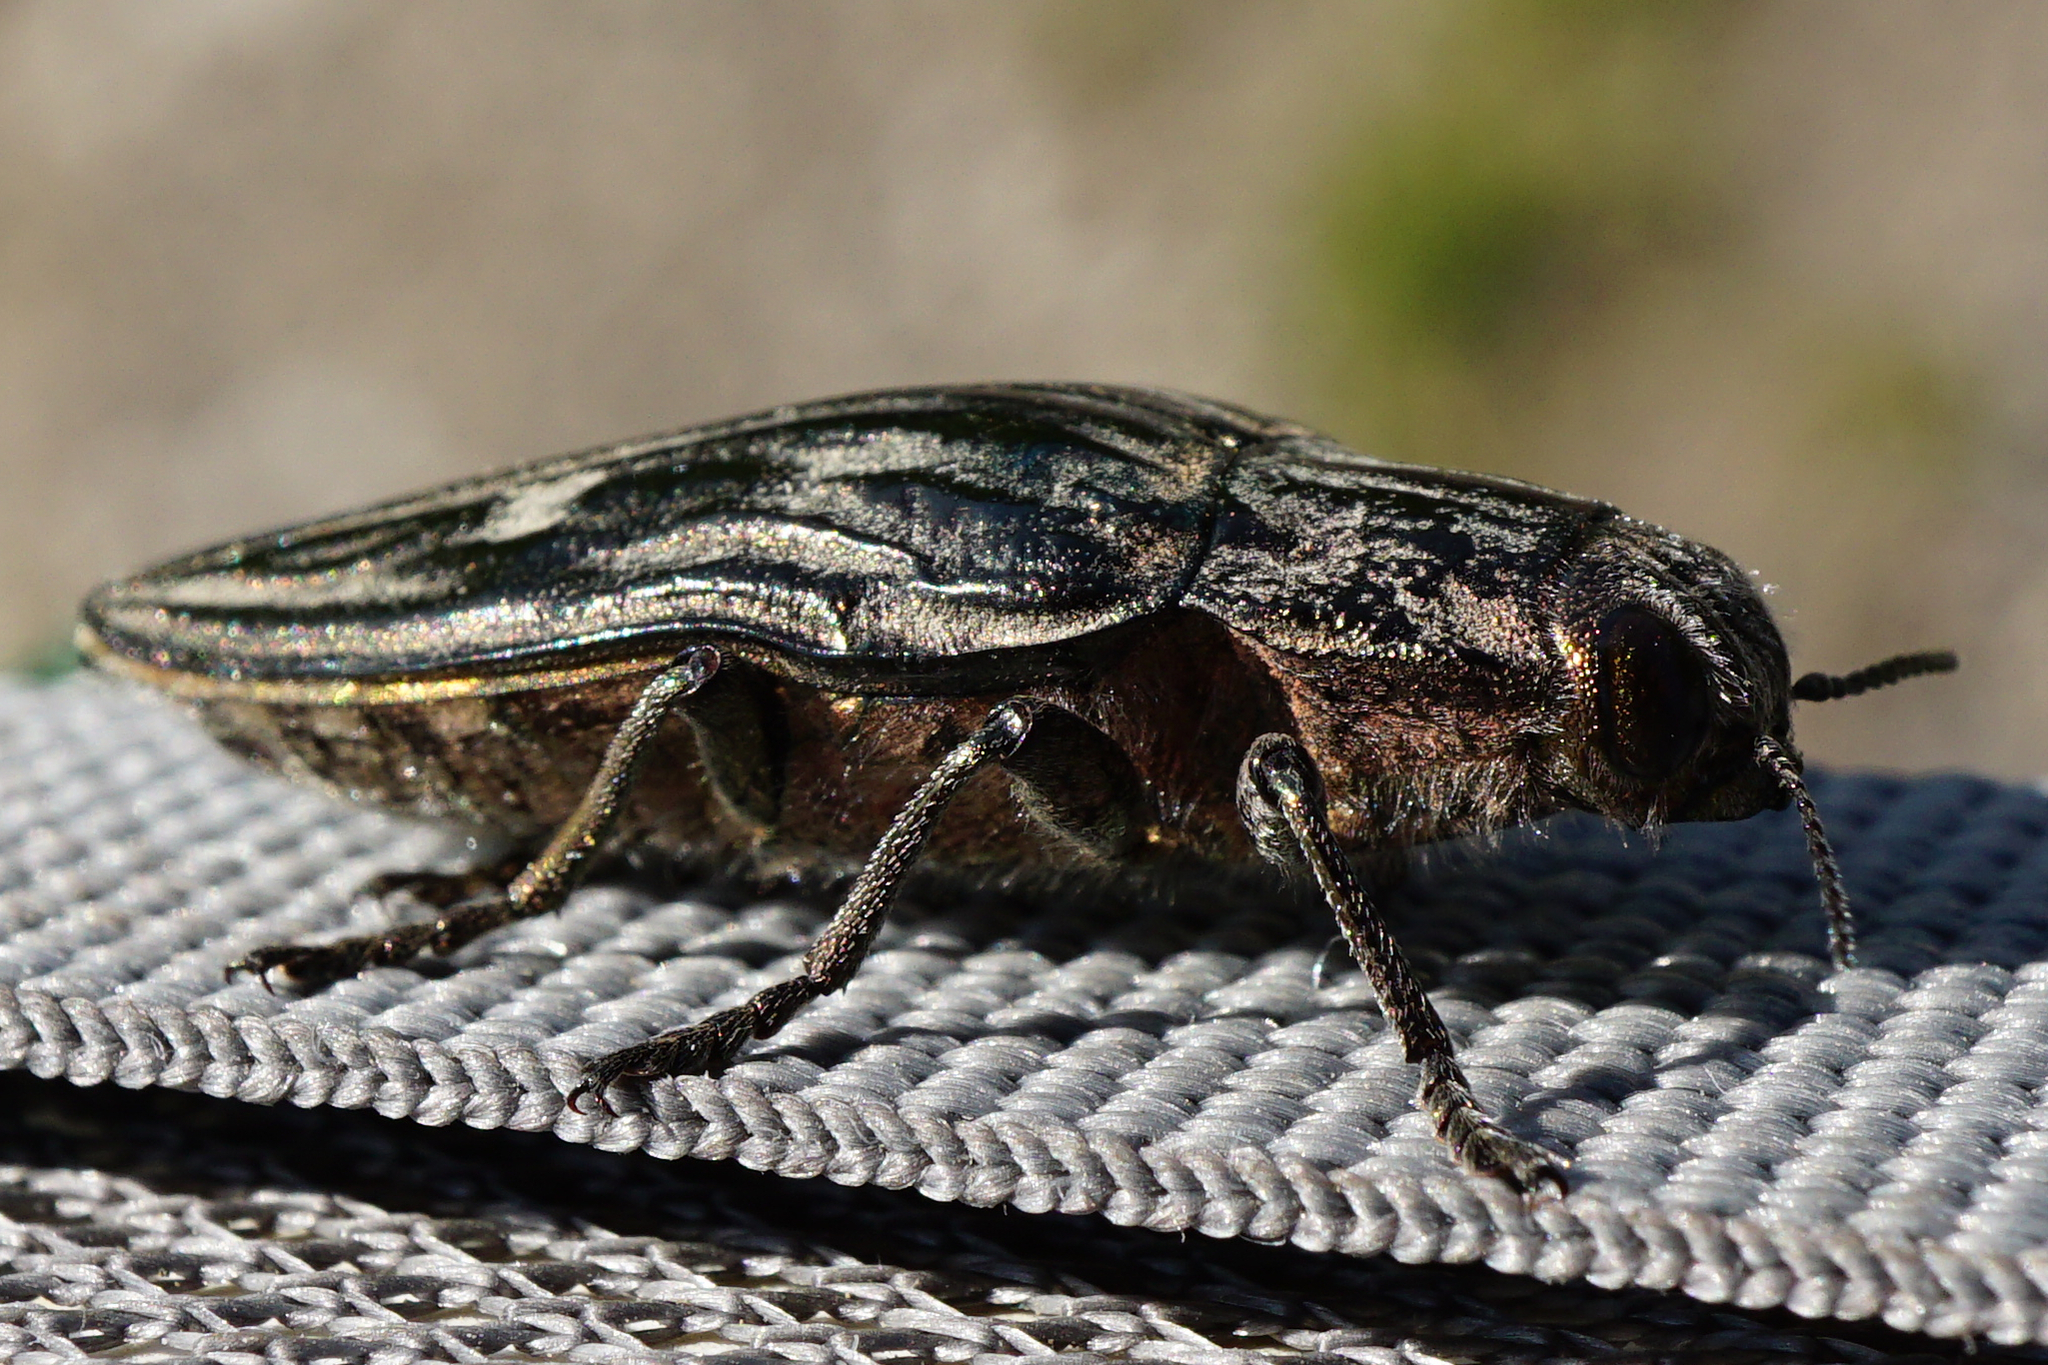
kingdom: Animalia
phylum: Arthropoda
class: Insecta
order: Coleoptera
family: Buprestidae
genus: Chalcophora
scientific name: Chalcophora mariana
